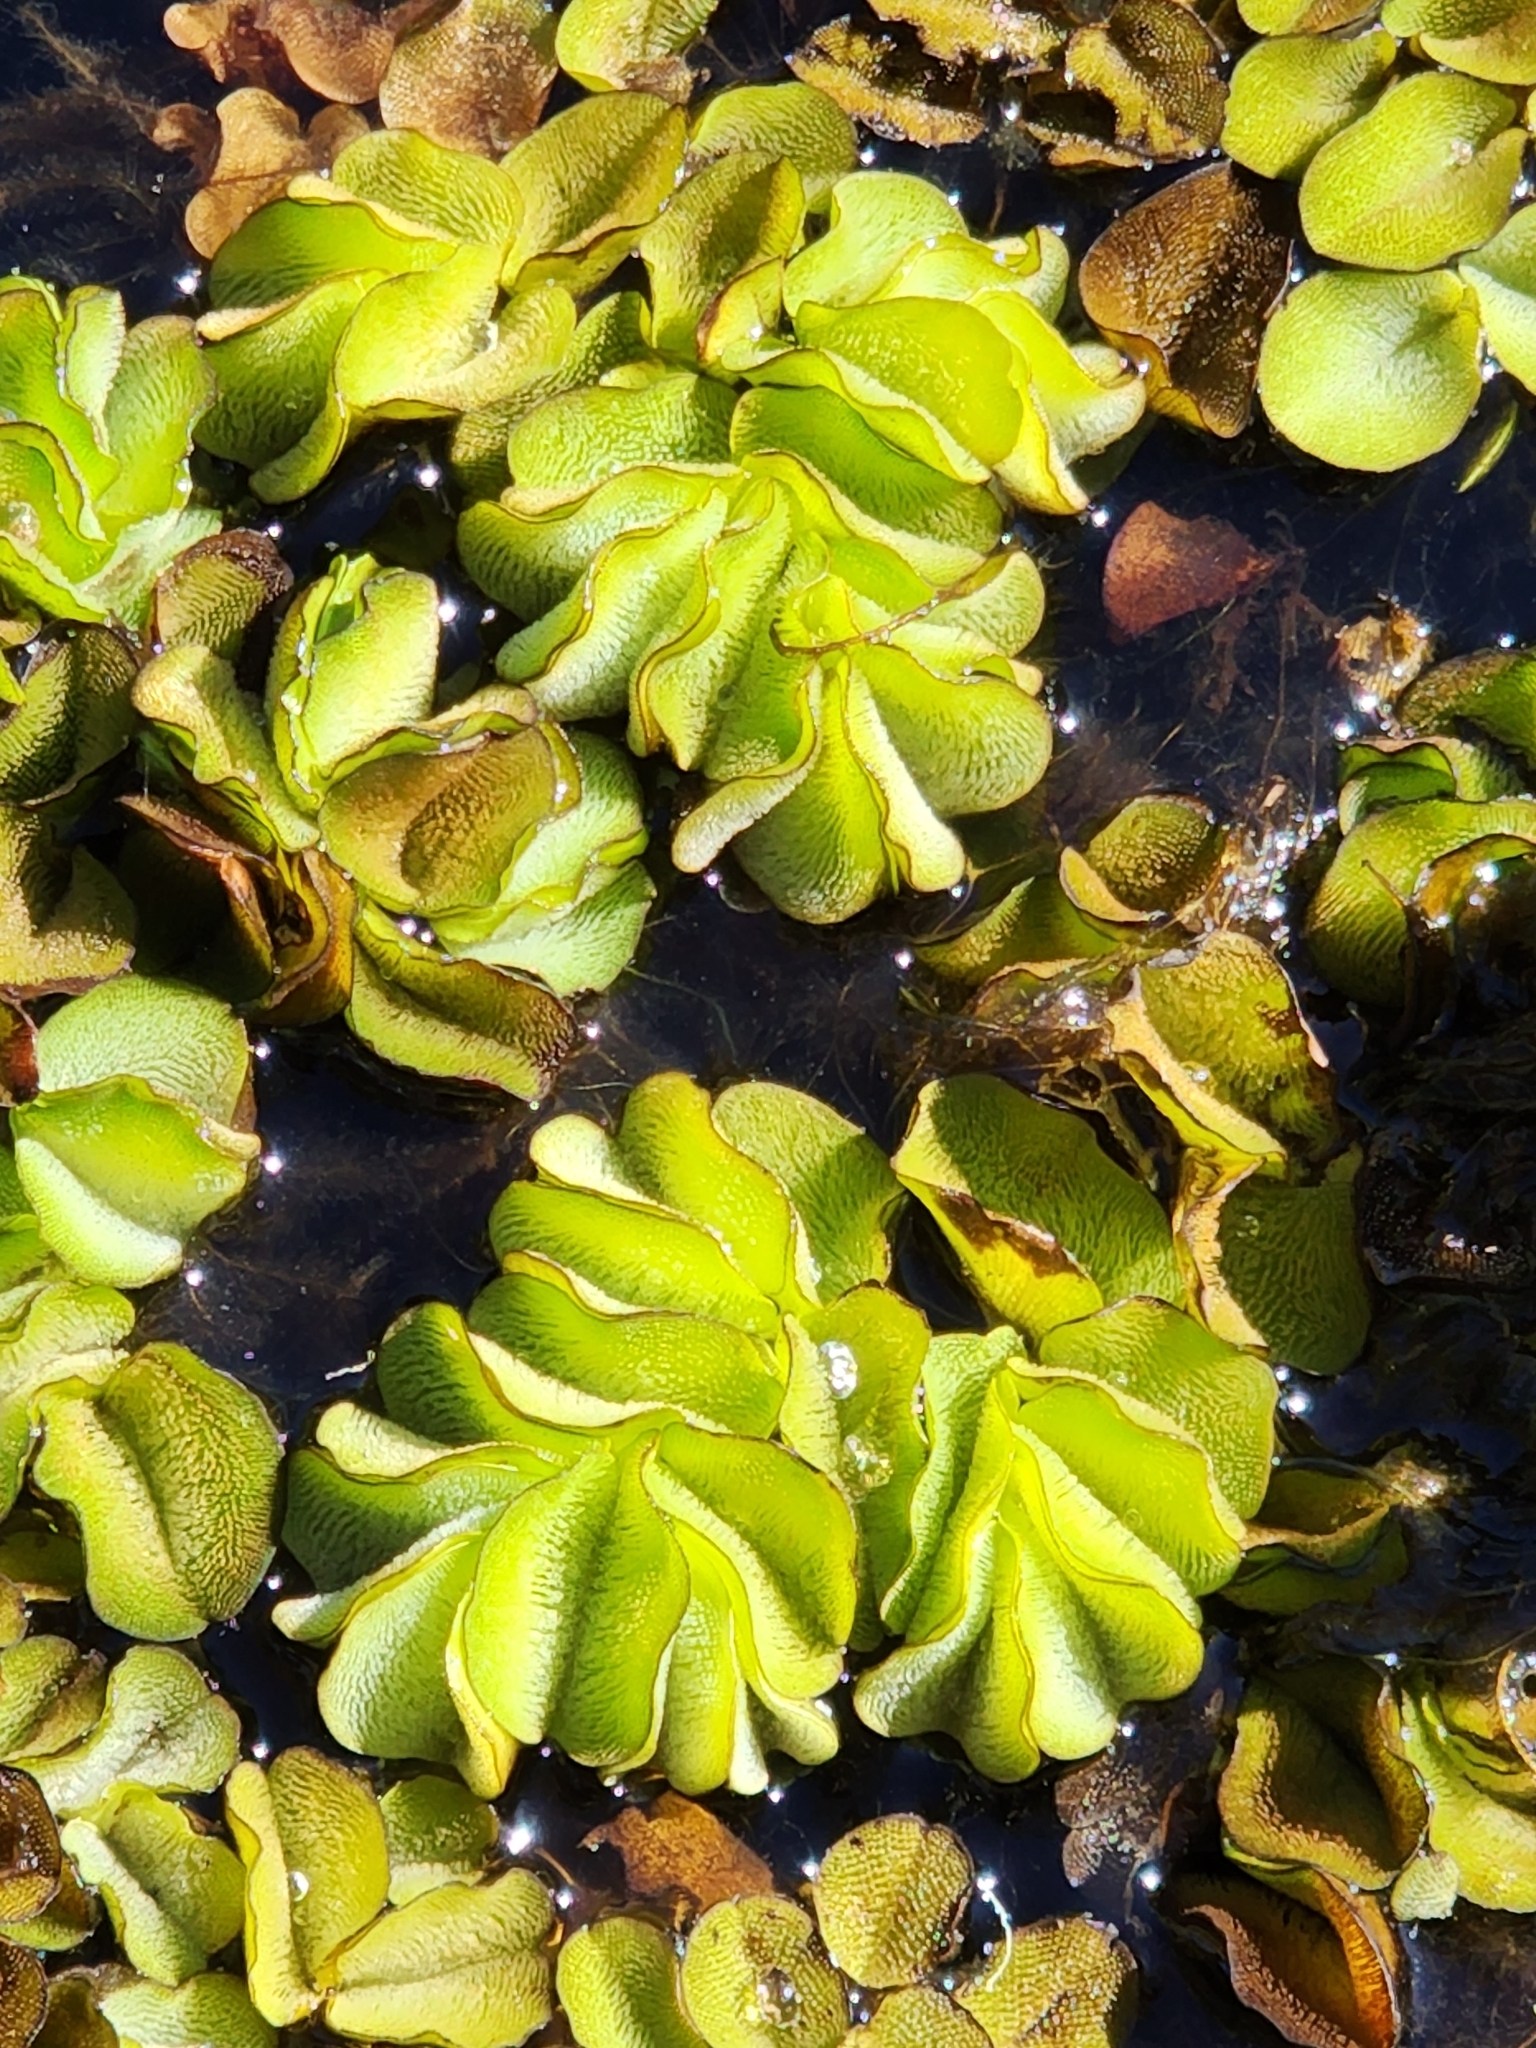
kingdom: Plantae
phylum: Tracheophyta
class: Polypodiopsida
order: Salviniales
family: Salviniaceae
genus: Salvinia
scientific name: Salvinia molesta
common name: Kariba weed
